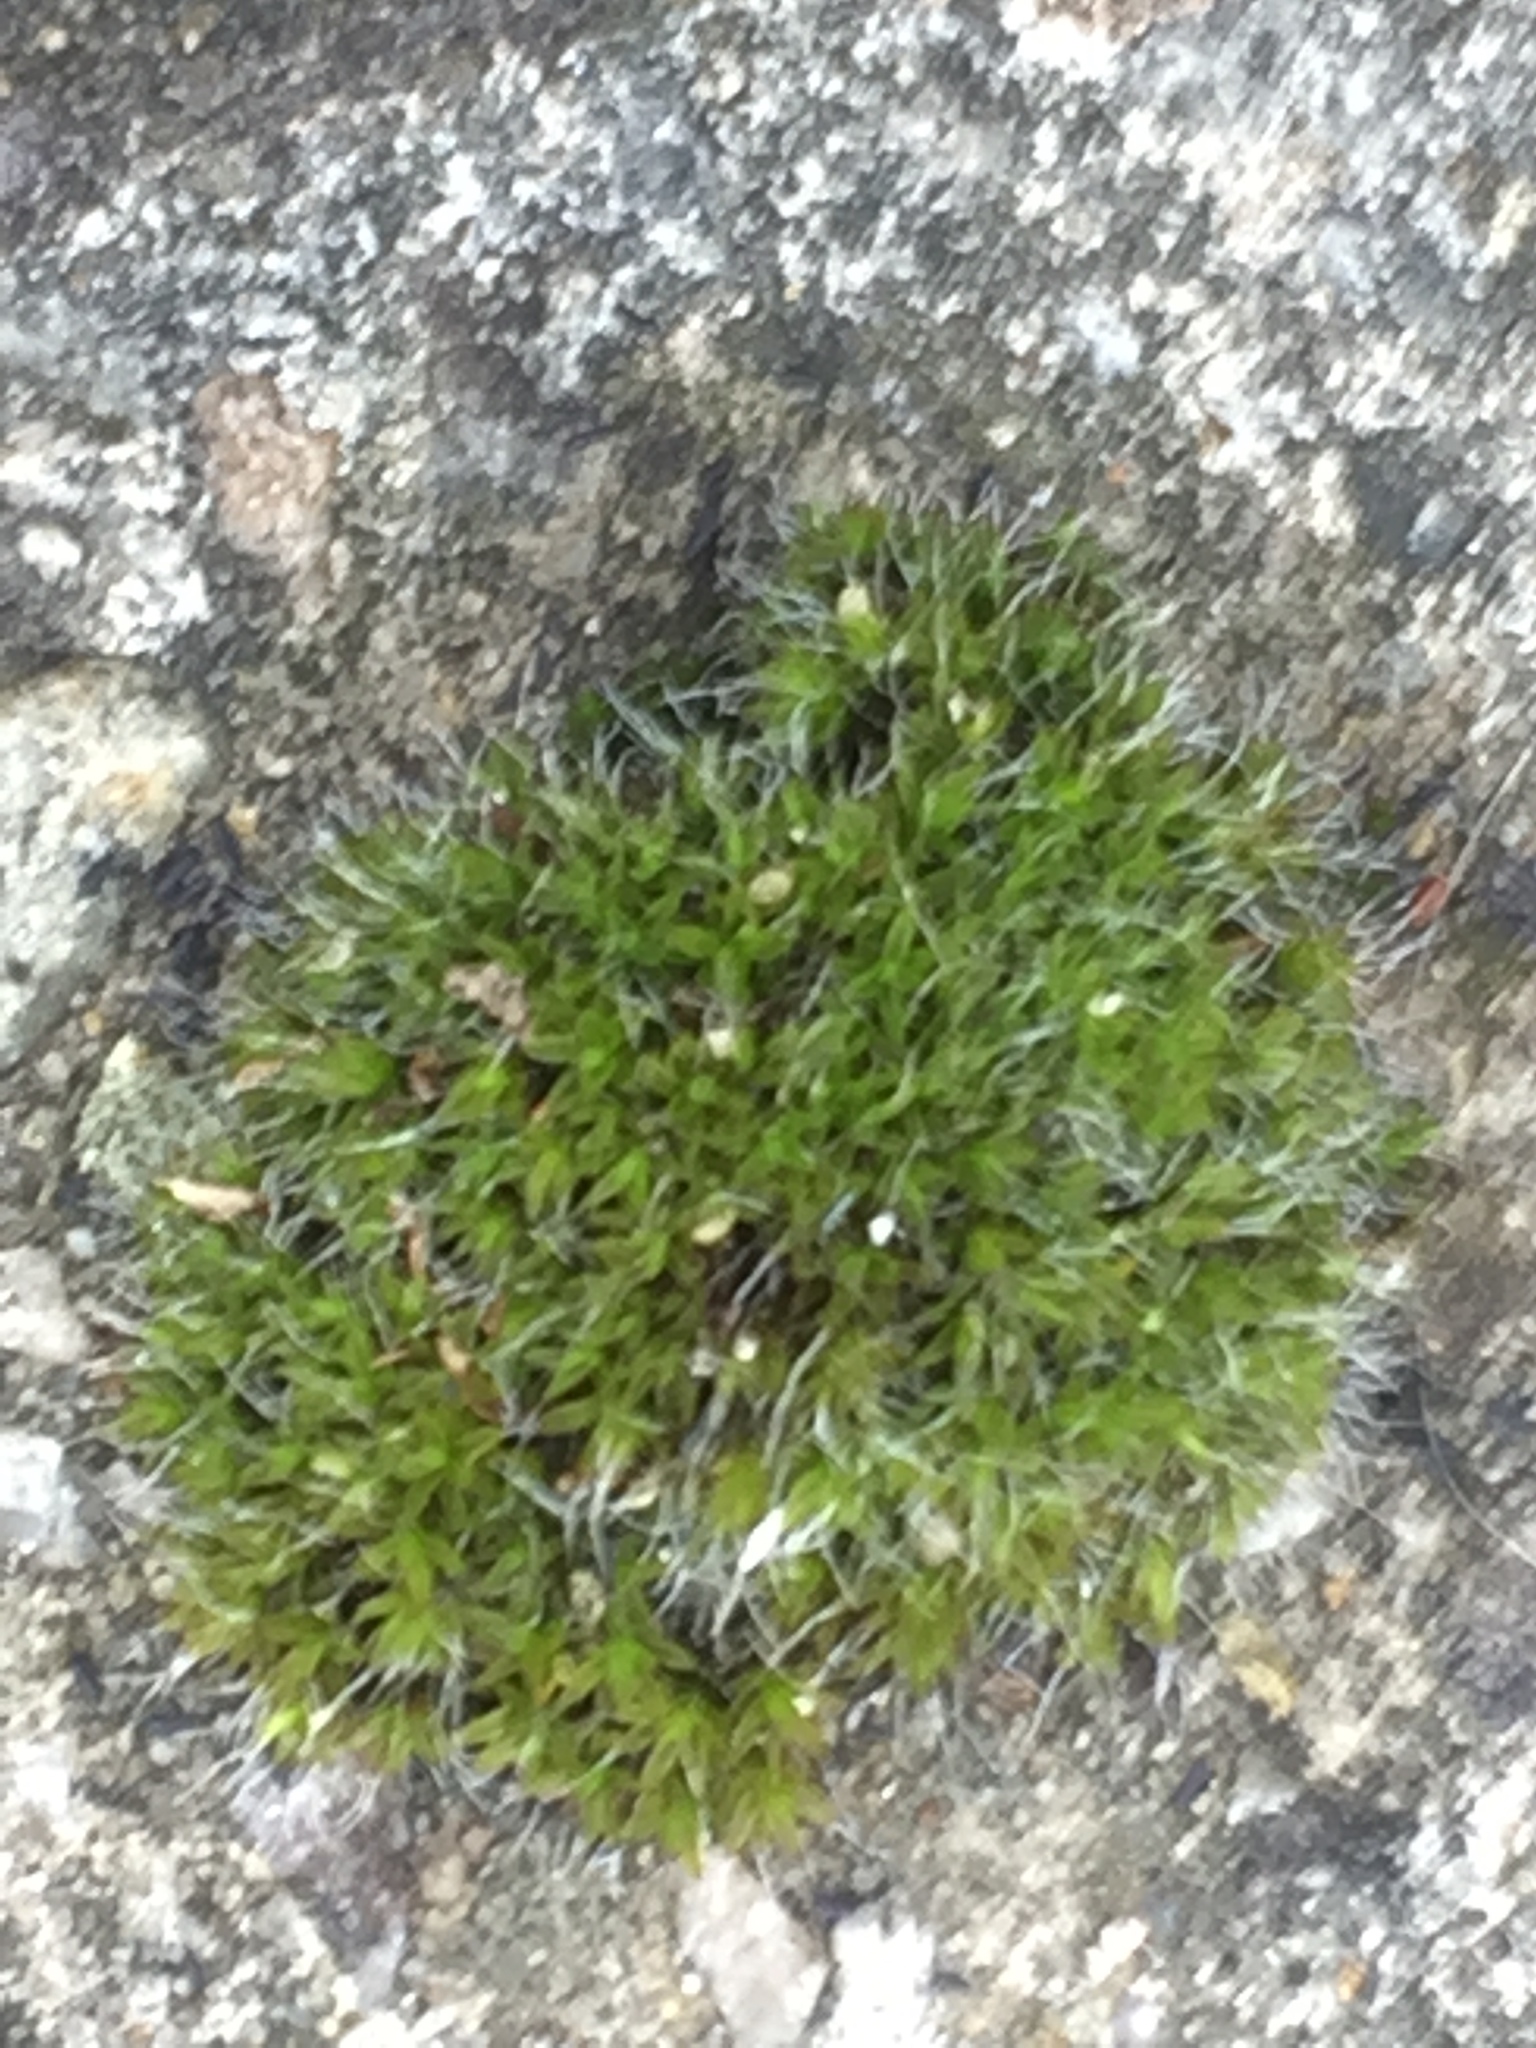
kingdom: Plantae
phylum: Bryophyta
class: Bryopsida
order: Grimmiales
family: Grimmiaceae
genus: Grimmia
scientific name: Grimmia pulvinata
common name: Grey-cushioned grimmia
